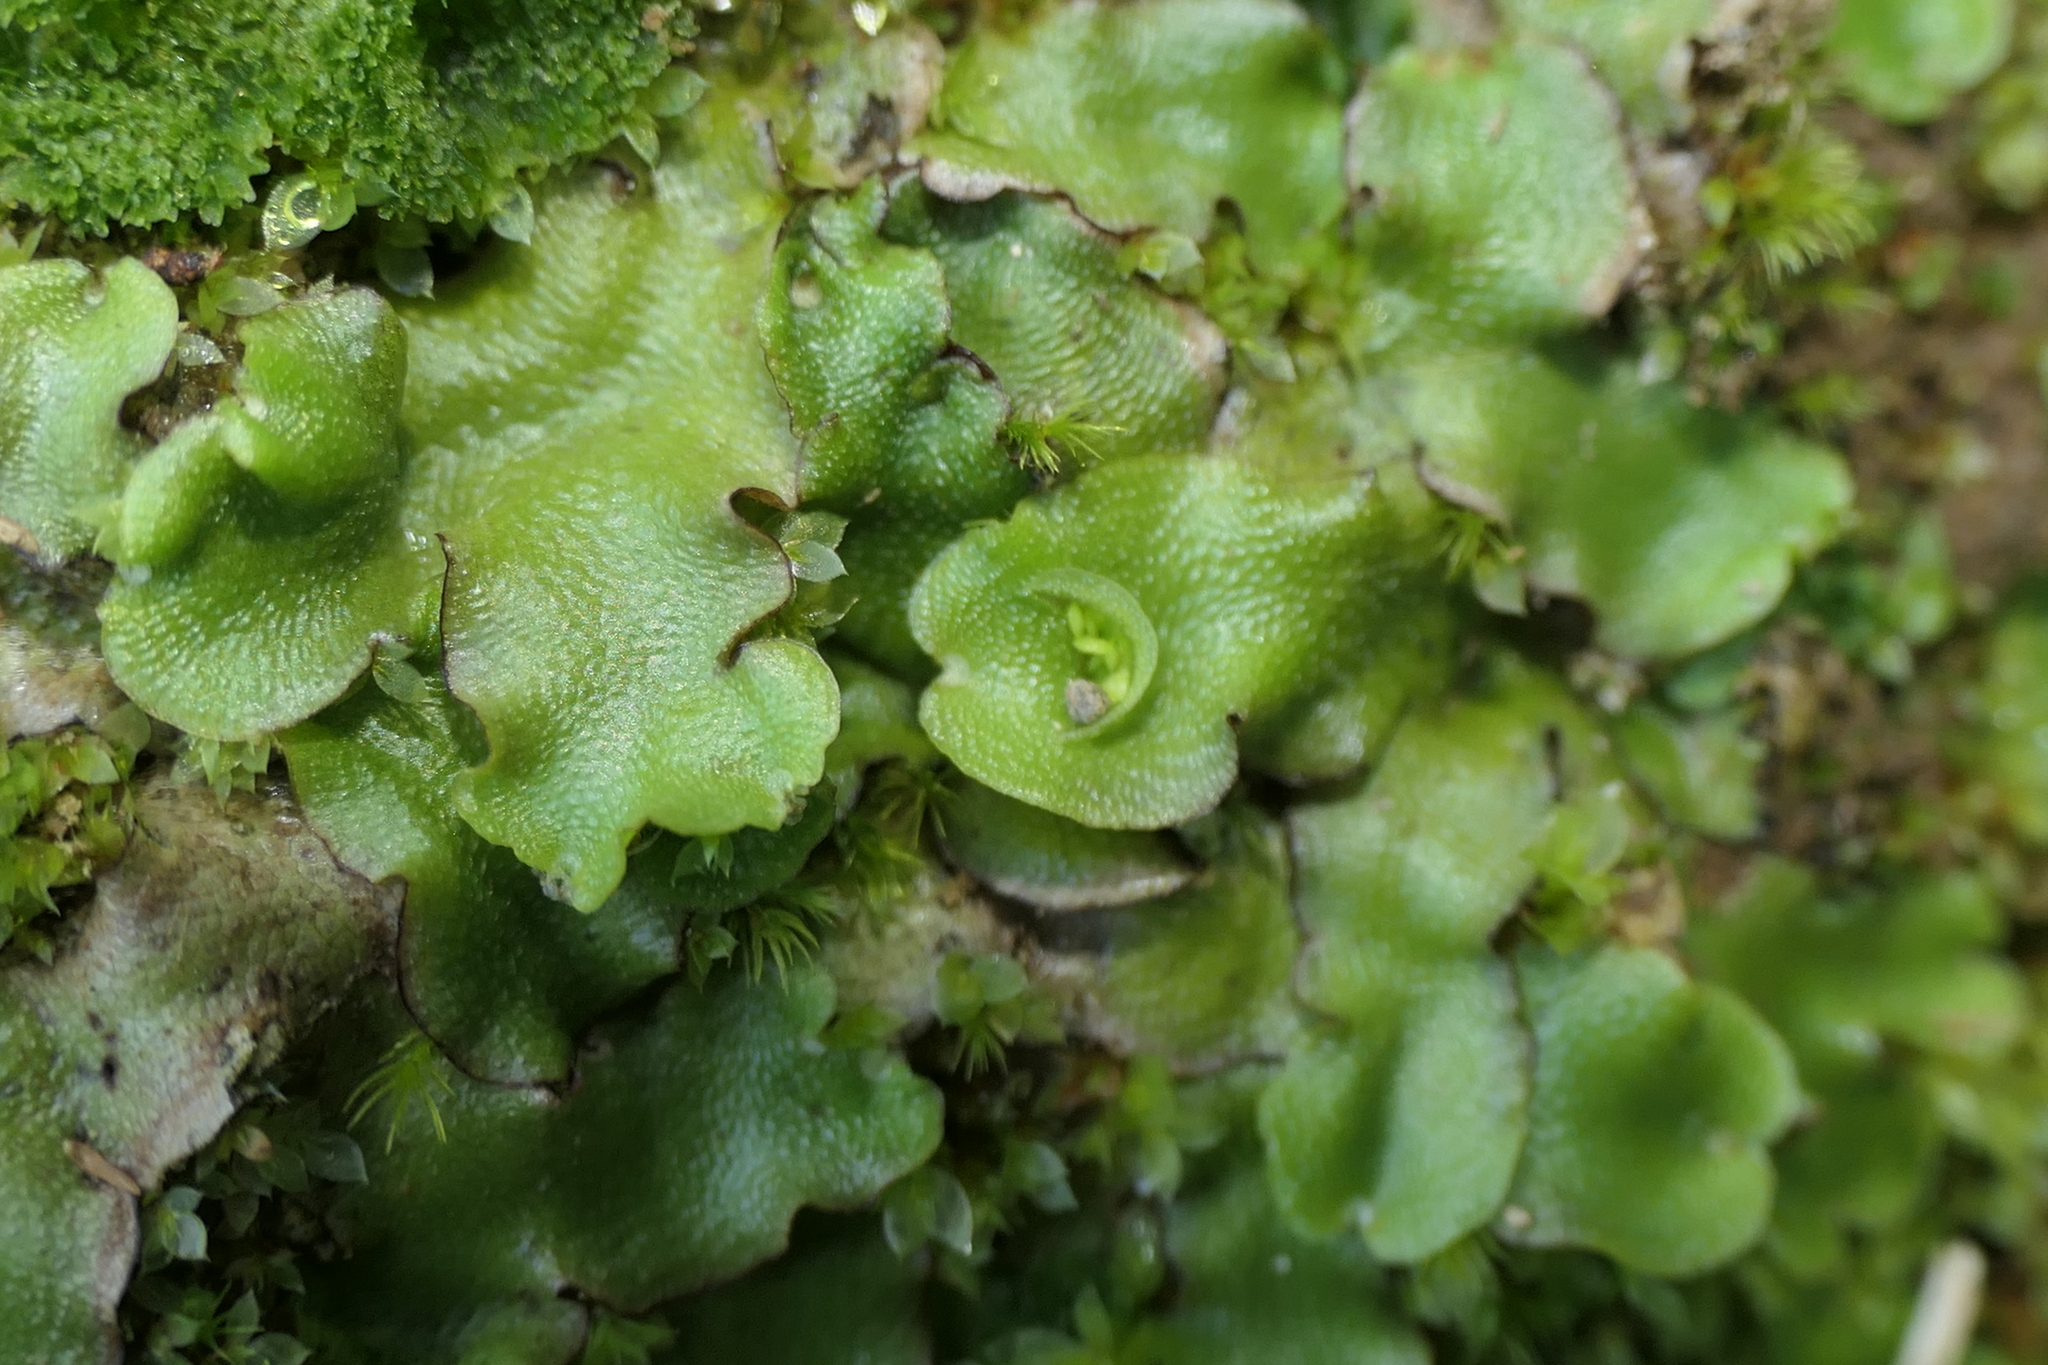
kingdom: Plantae
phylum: Marchantiophyta
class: Marchantiopsida
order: Lunulariales
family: Lunulariaceae
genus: Lunularia
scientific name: Lunularia cruciata
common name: Crescent-cup liverwort
